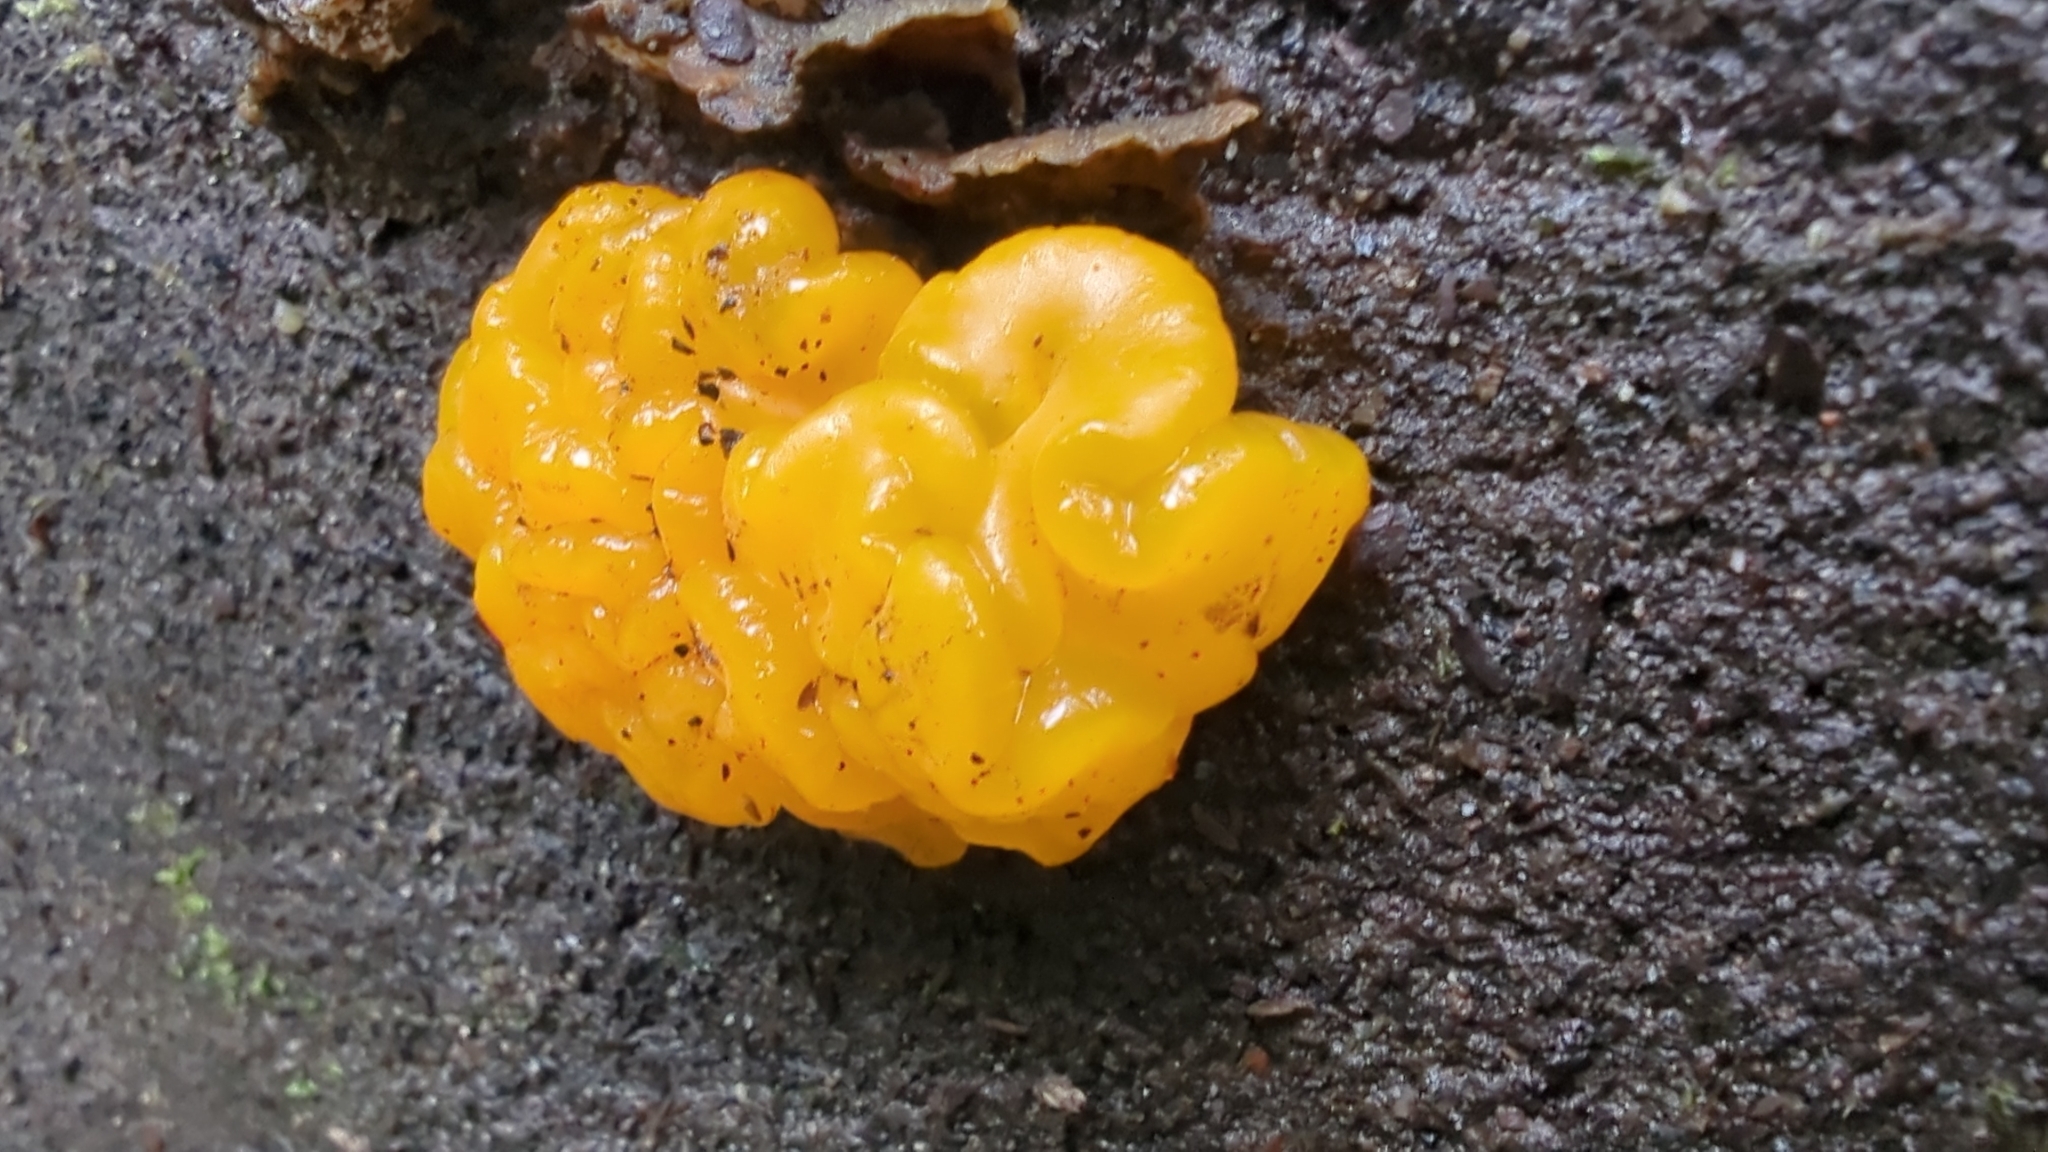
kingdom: Fungi
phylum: Basidiomycota
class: Dacrymycetes
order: Dacrymycetales
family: Dacrymycetaceae
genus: Dacrymyces
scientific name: Dacrymyces chrysospermus
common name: Orange jelly spot
